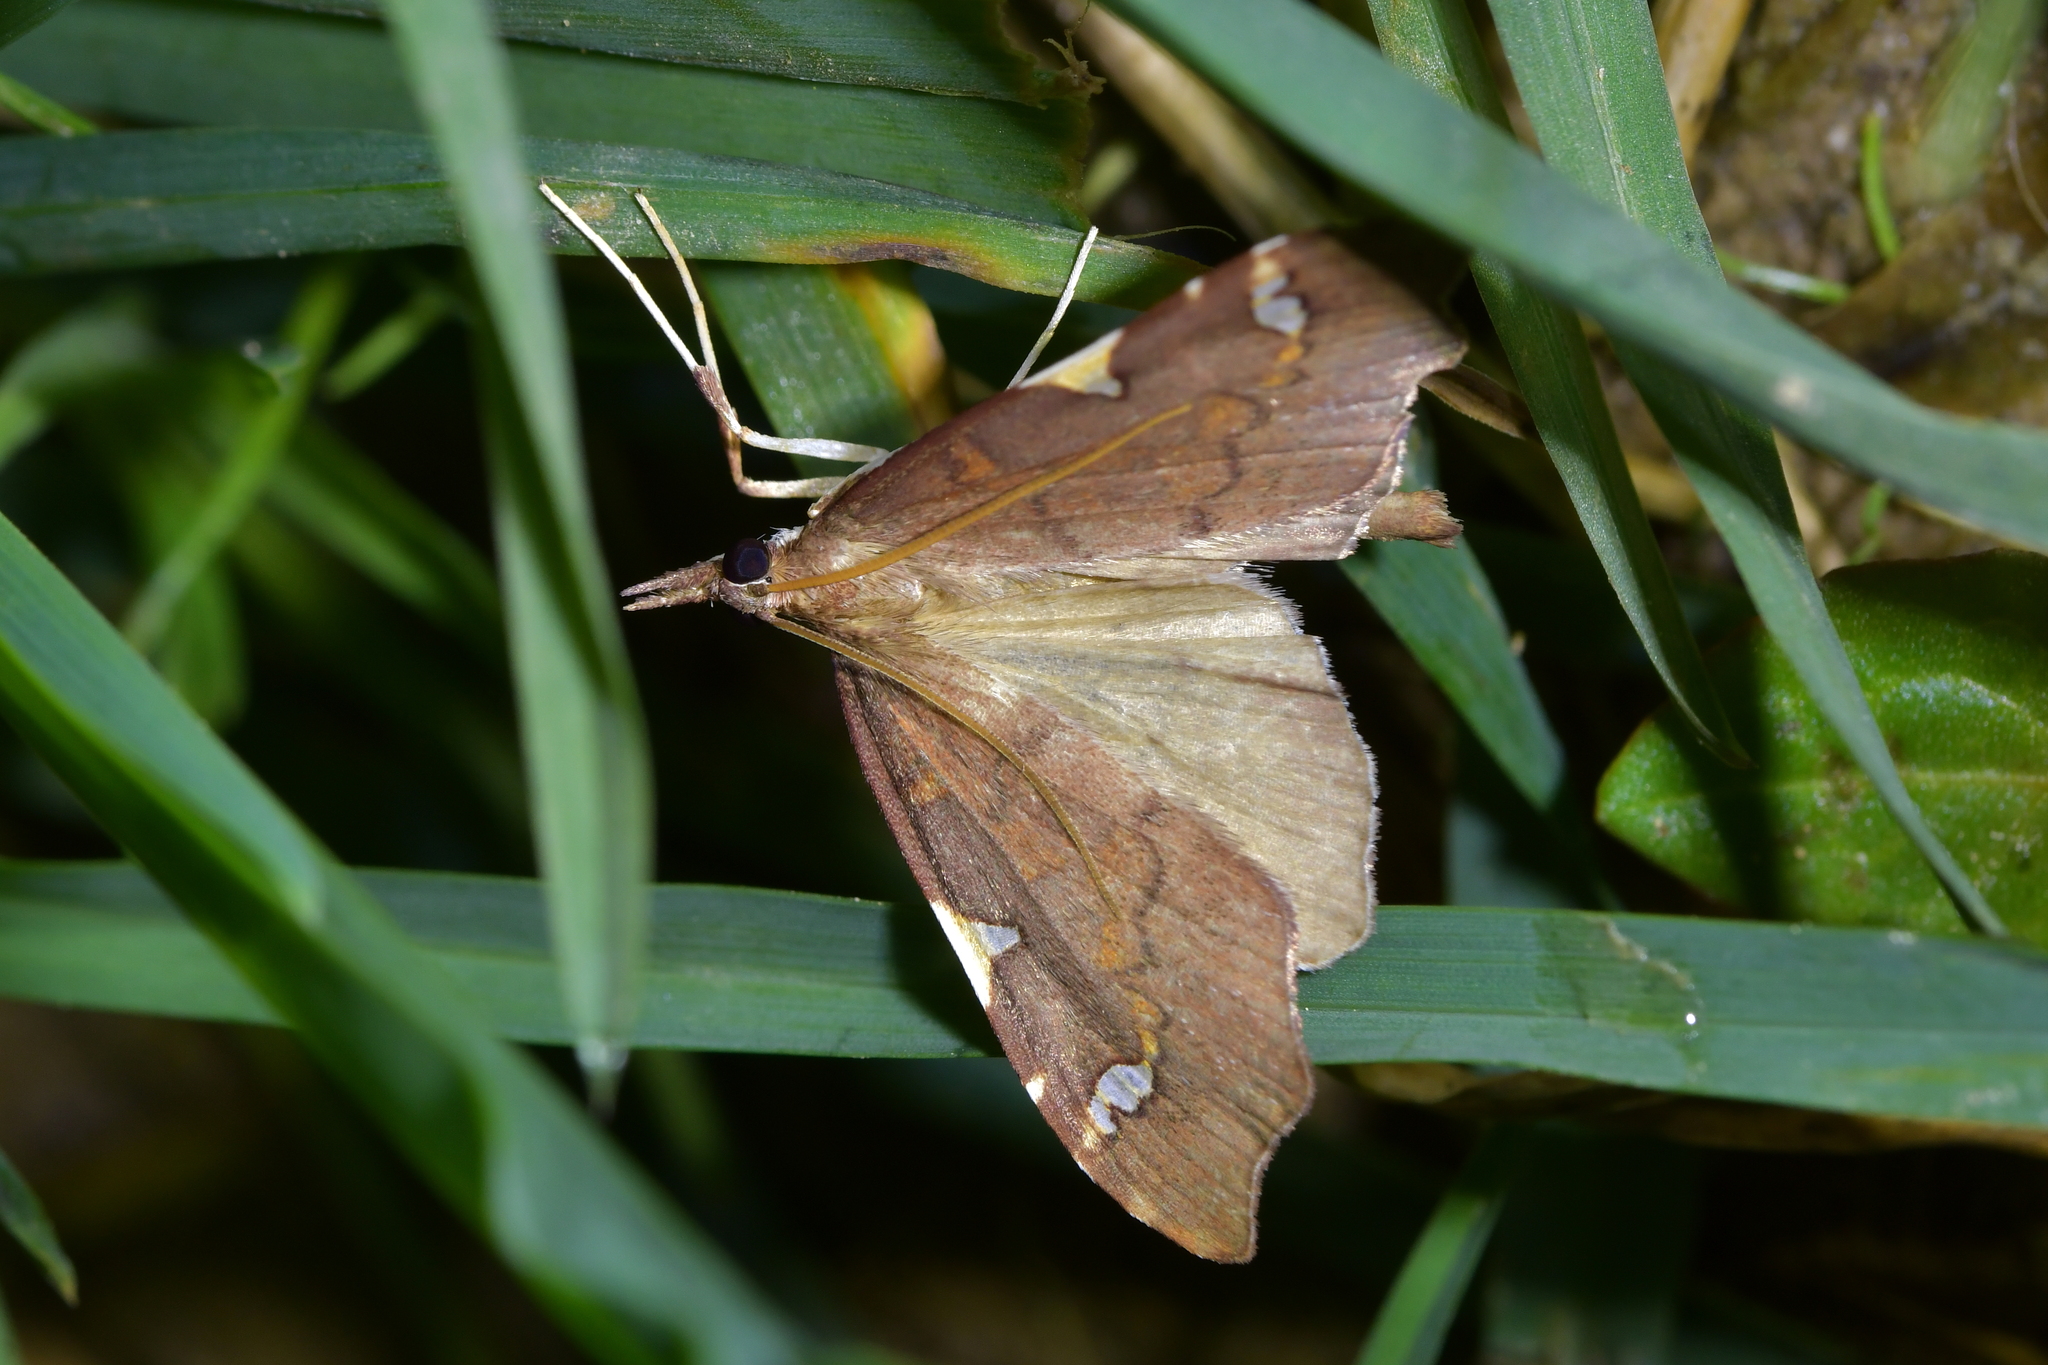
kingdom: Animalia
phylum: Arthropoda
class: Insecta
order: Lepidoptera
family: Crambidae
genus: Deana
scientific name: Deana hybreasalis
